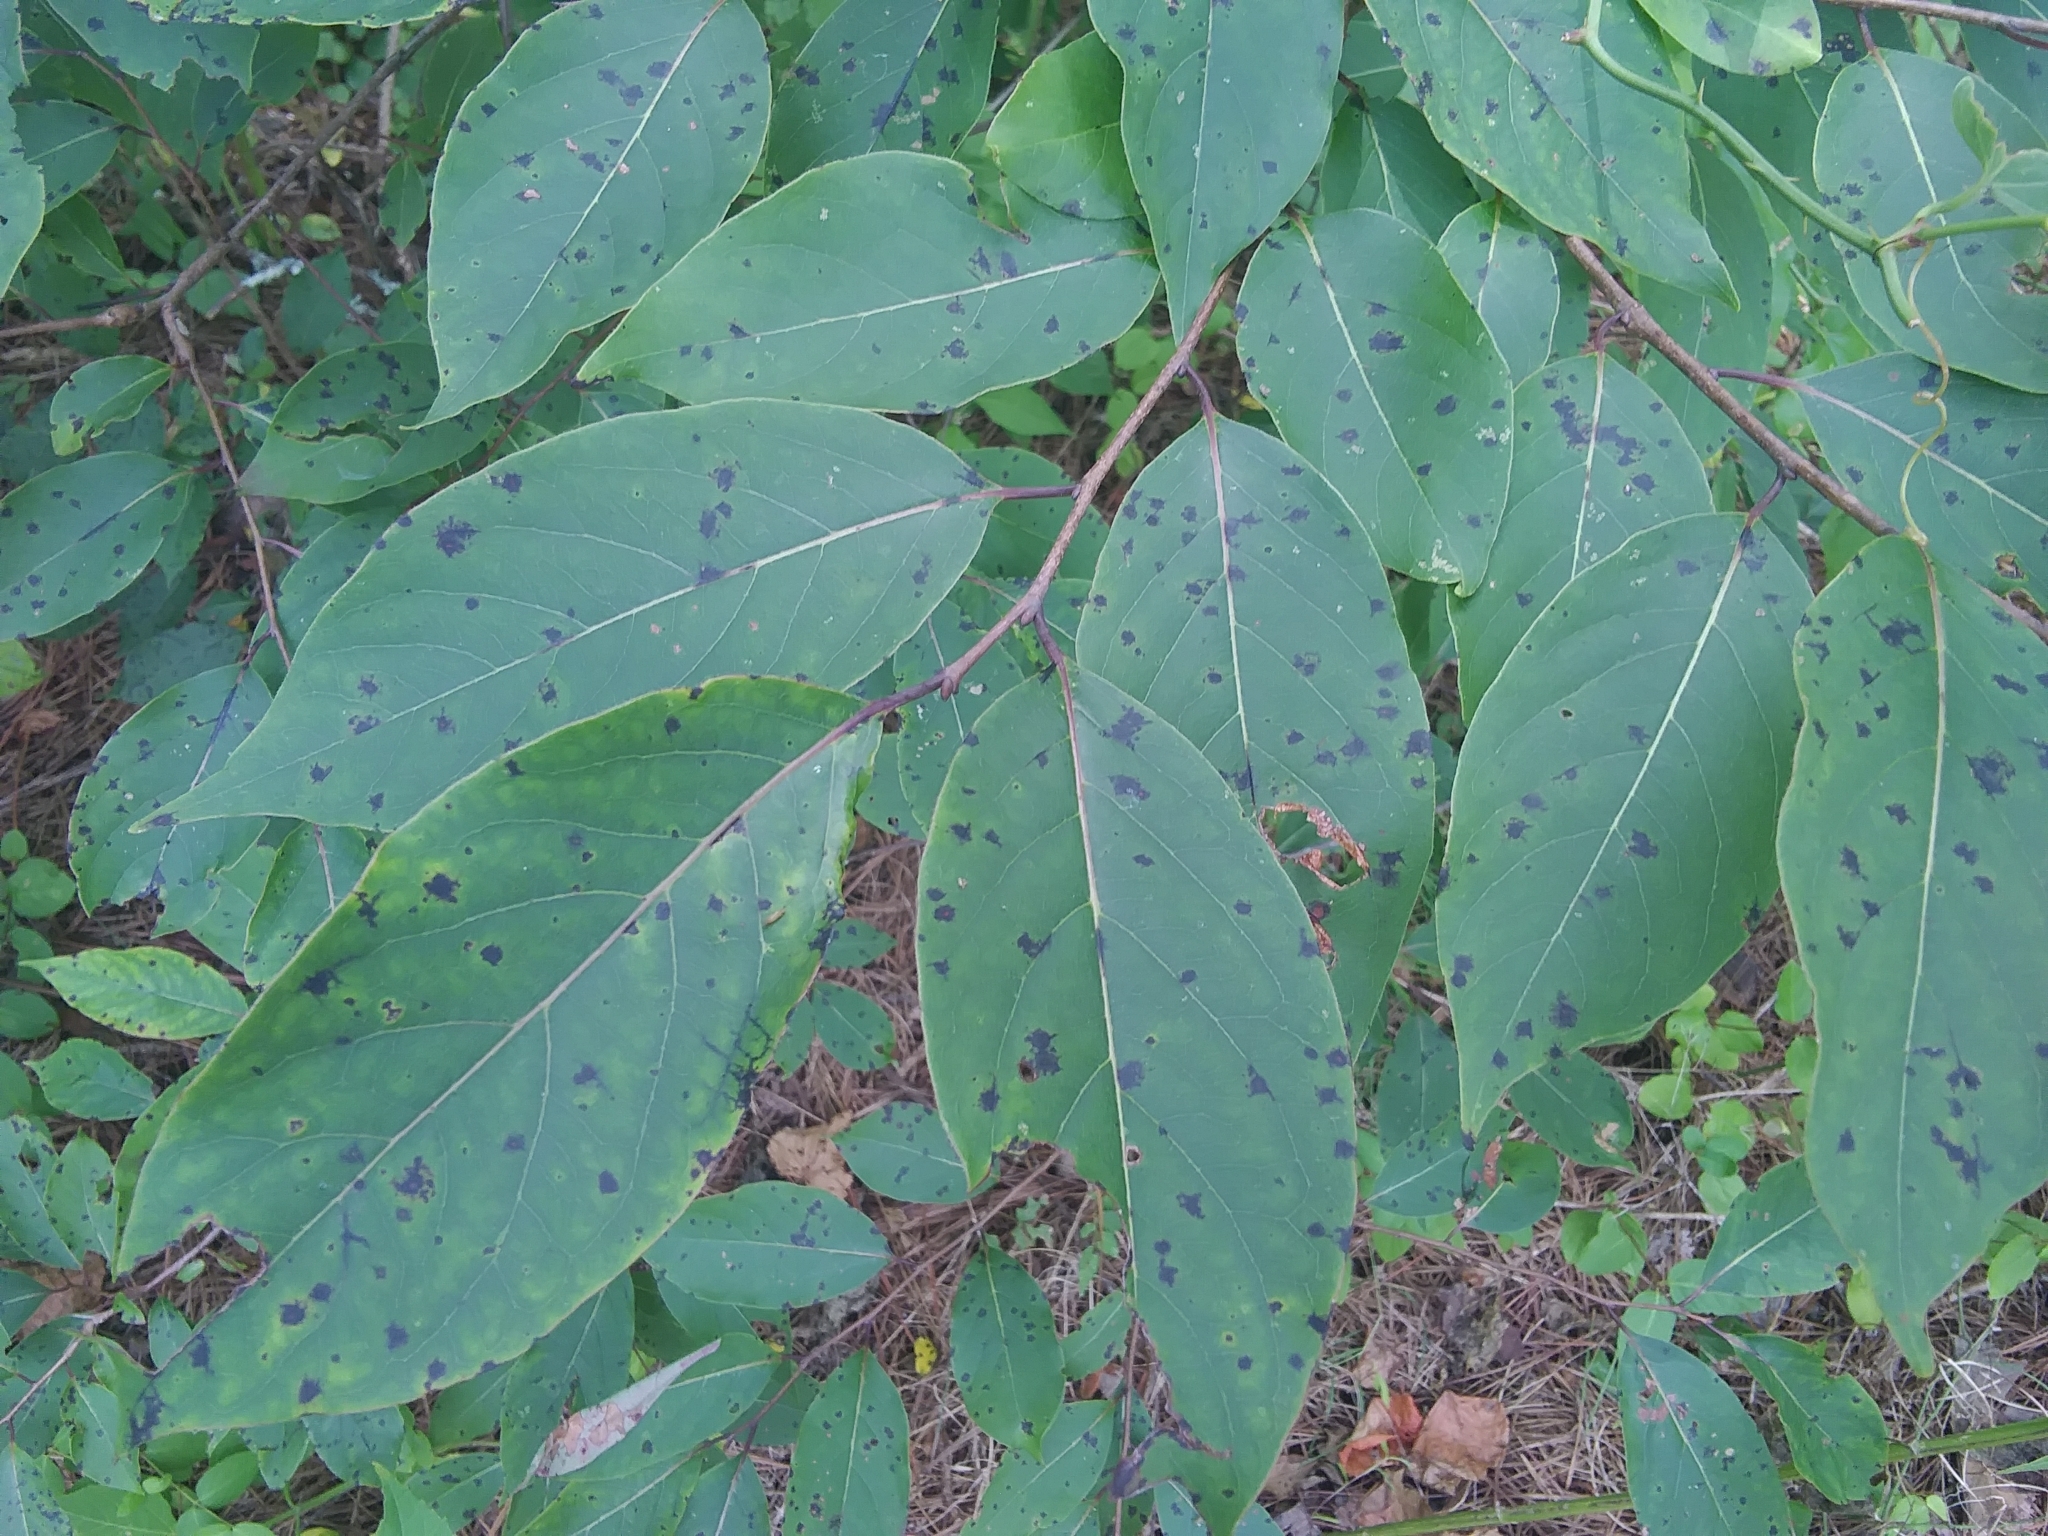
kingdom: Plantae
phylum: Tracheophyta
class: Magnoliopsida
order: Ericales
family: Ebenaceae
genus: Diospyros
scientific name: Diospyros virginiana
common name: Persimmon
